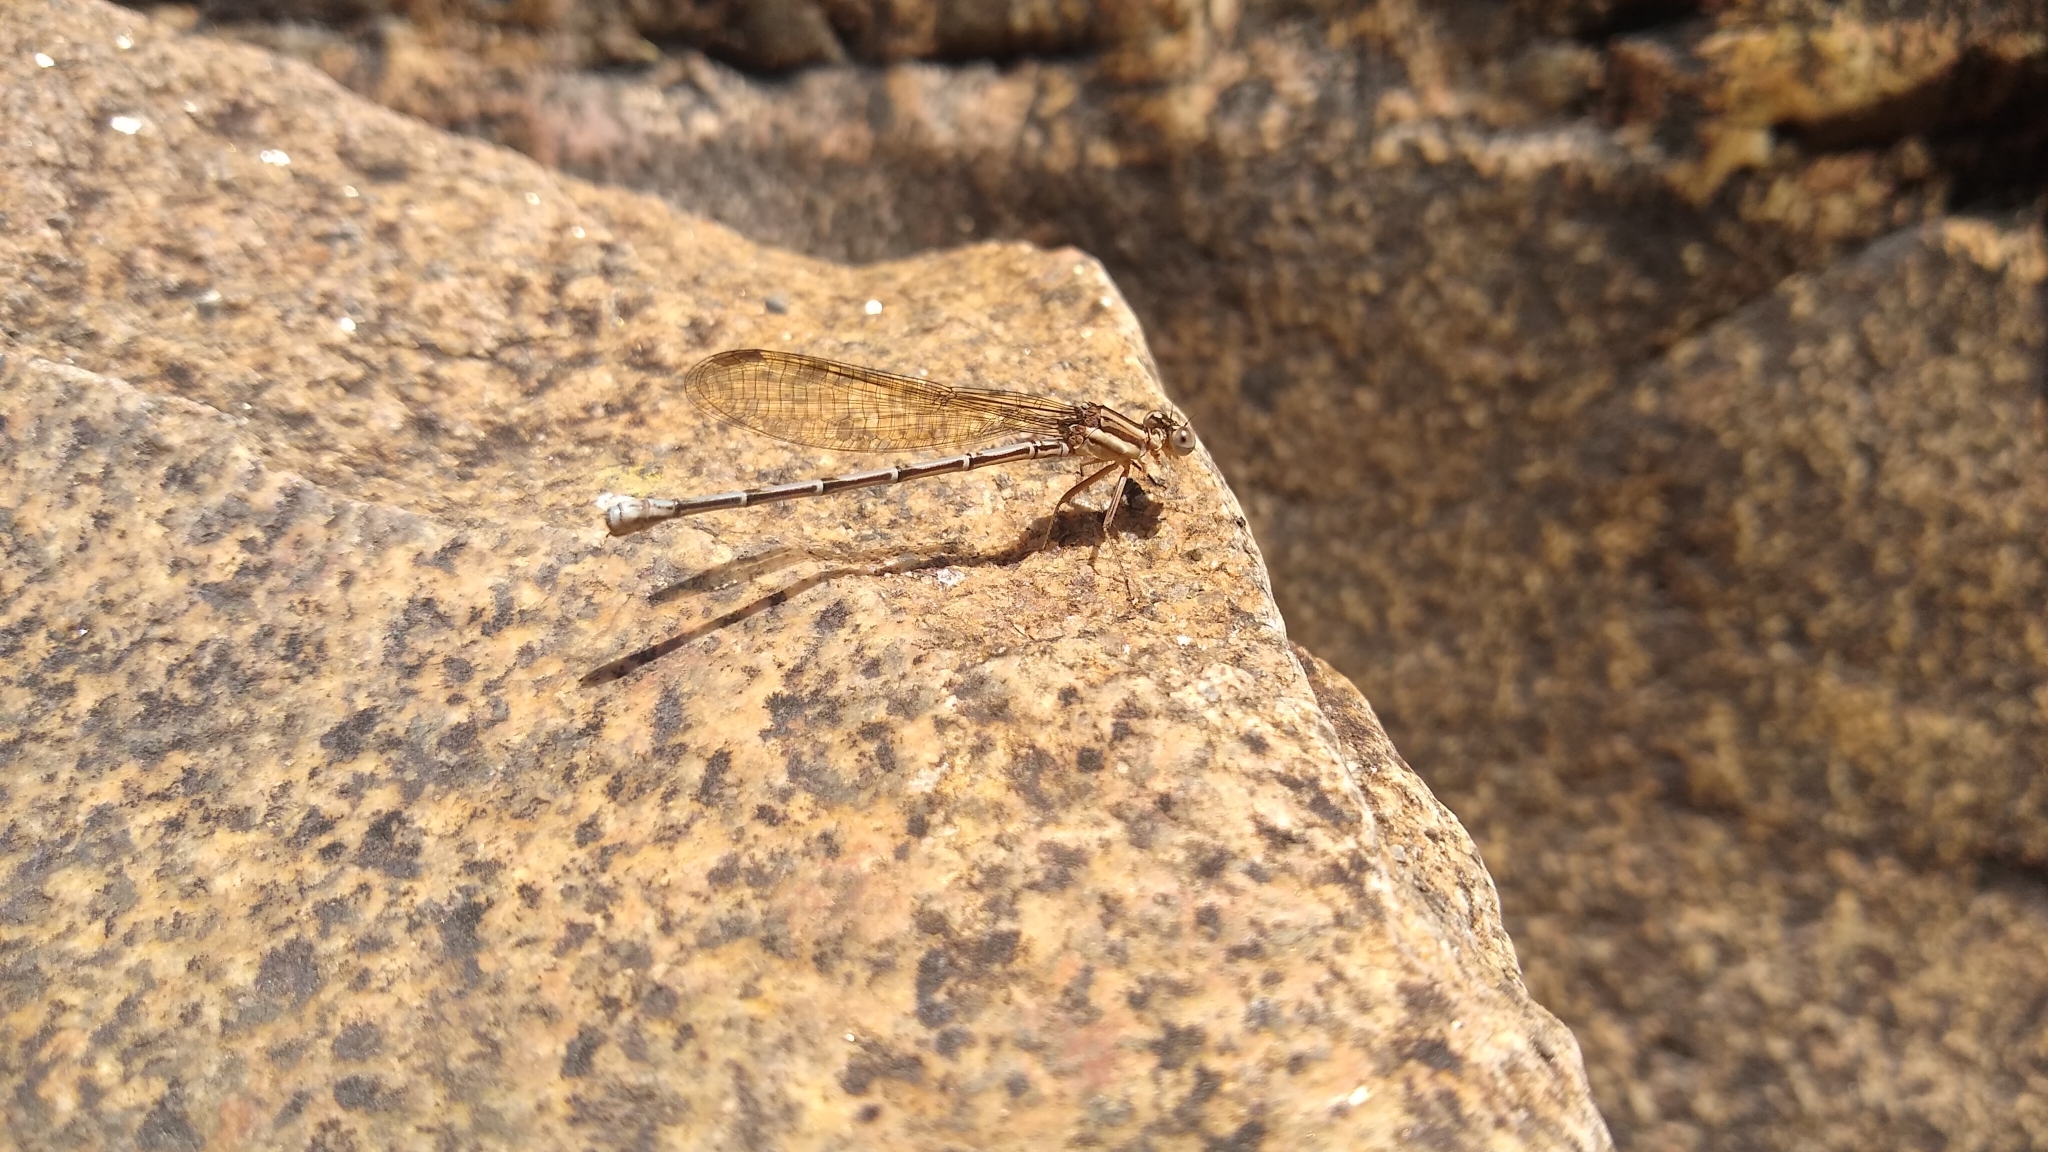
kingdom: Animalia
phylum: Arthropoda
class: Insecta
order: Odonata
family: Coenagrionidae
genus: Argia
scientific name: Argia joergenseni
